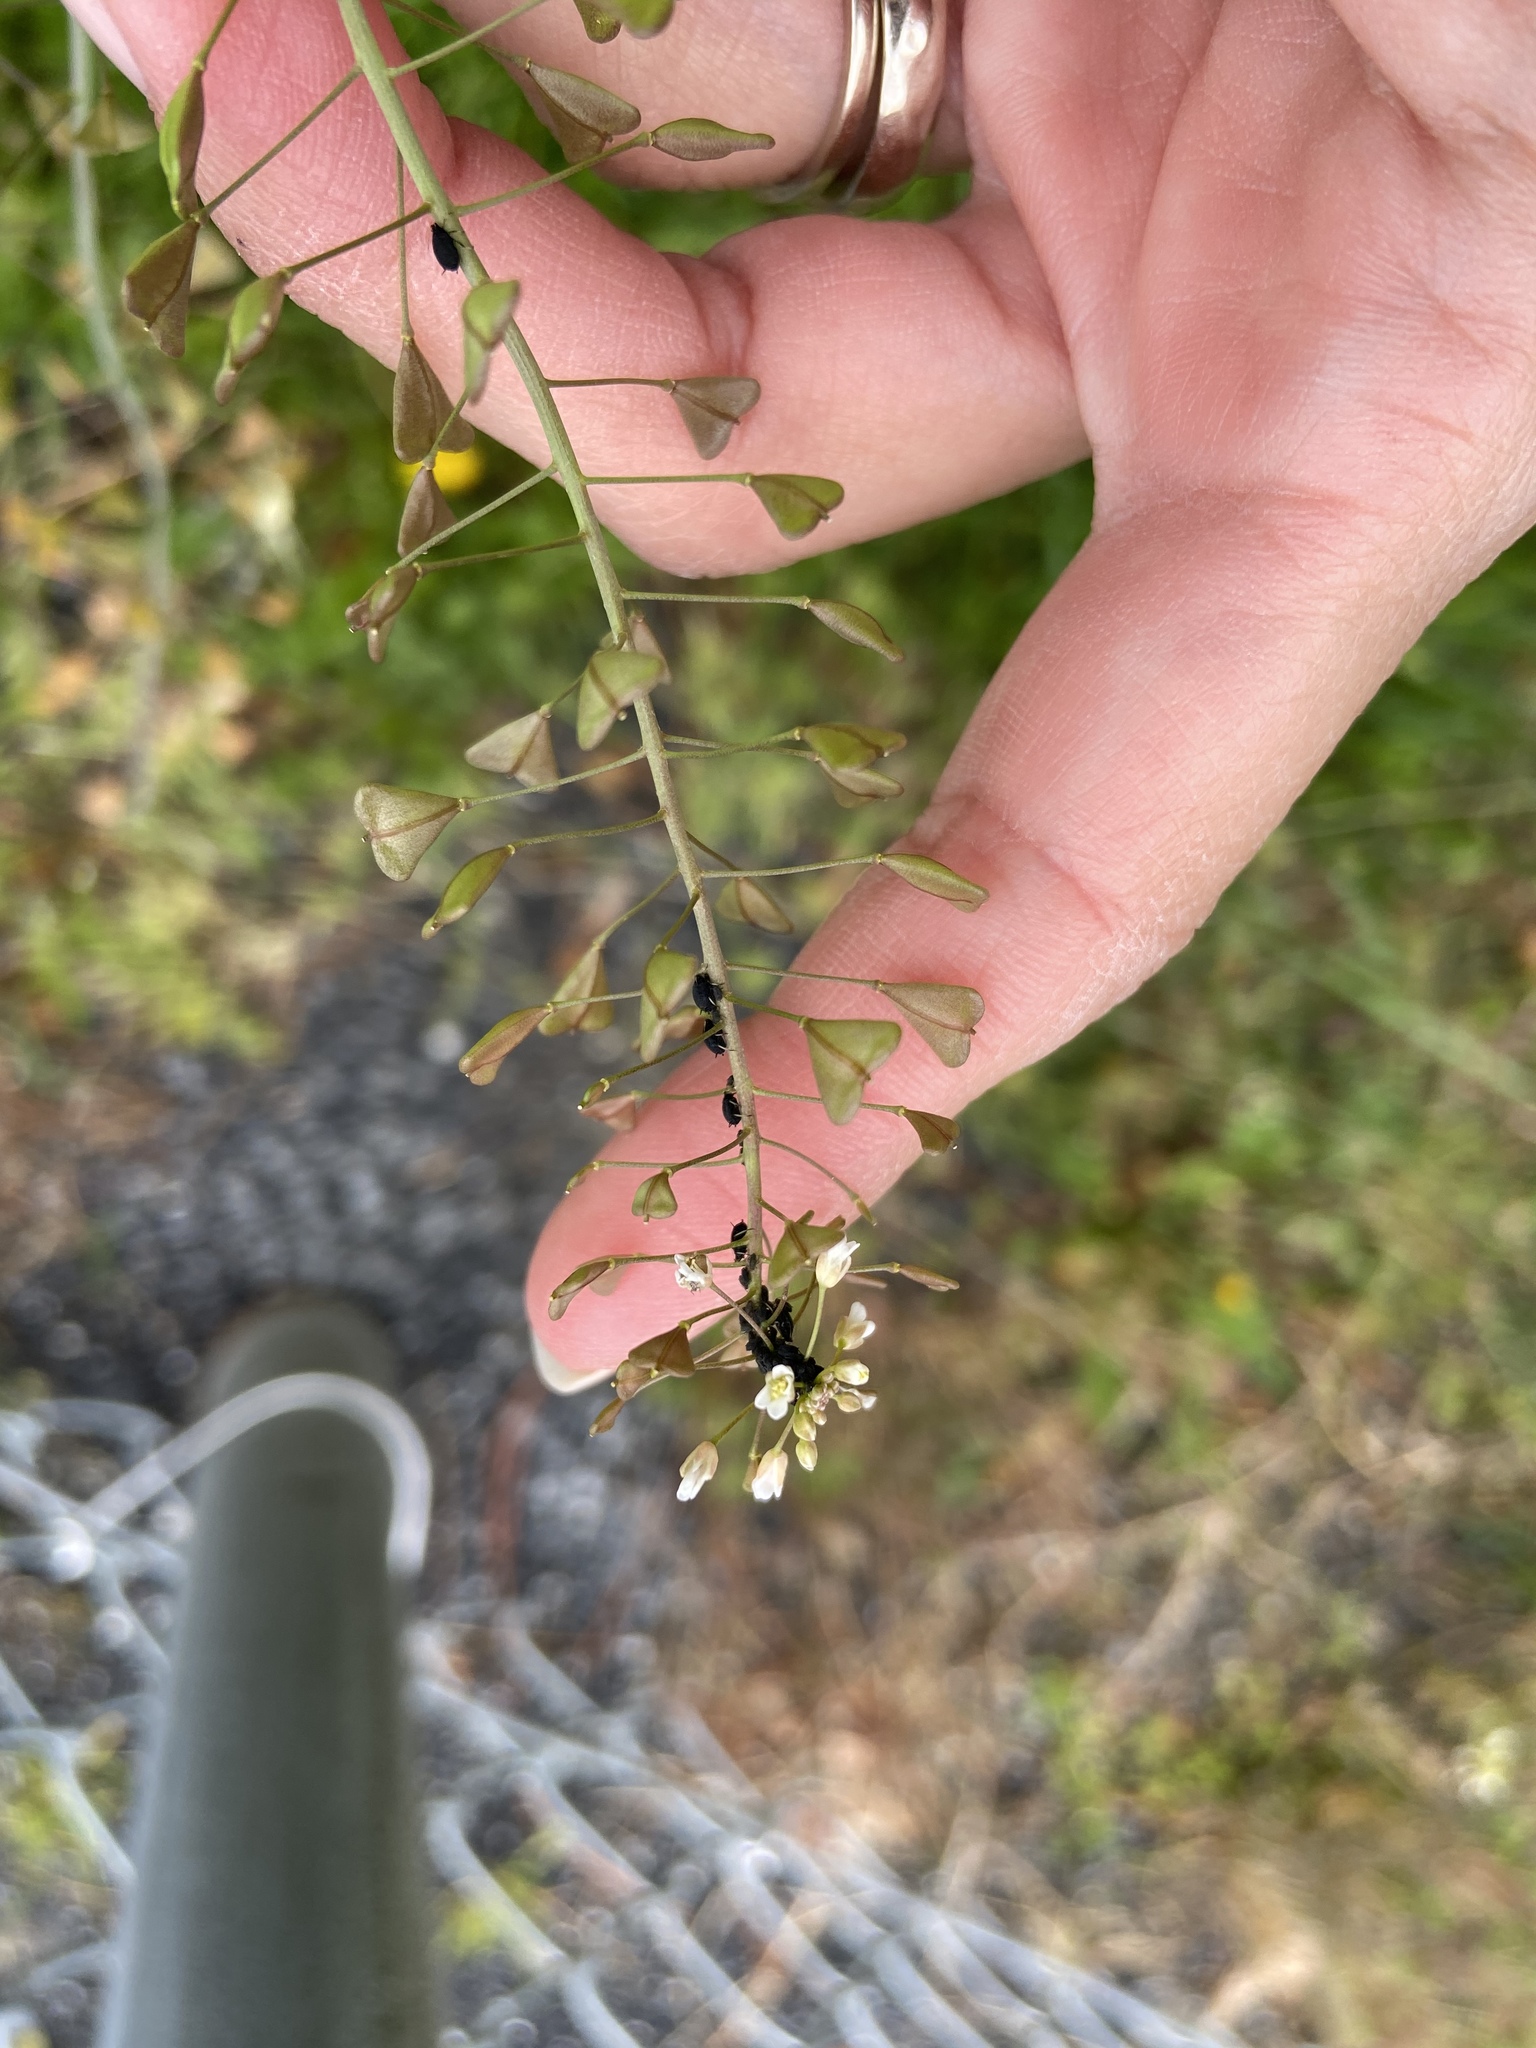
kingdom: Plantae
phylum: Tracheophyta
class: Magnoliopsida
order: Brassicales
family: Brassicaceae
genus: Capsella
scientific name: Capsella bursa-pastoris
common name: Shepherd's purse
